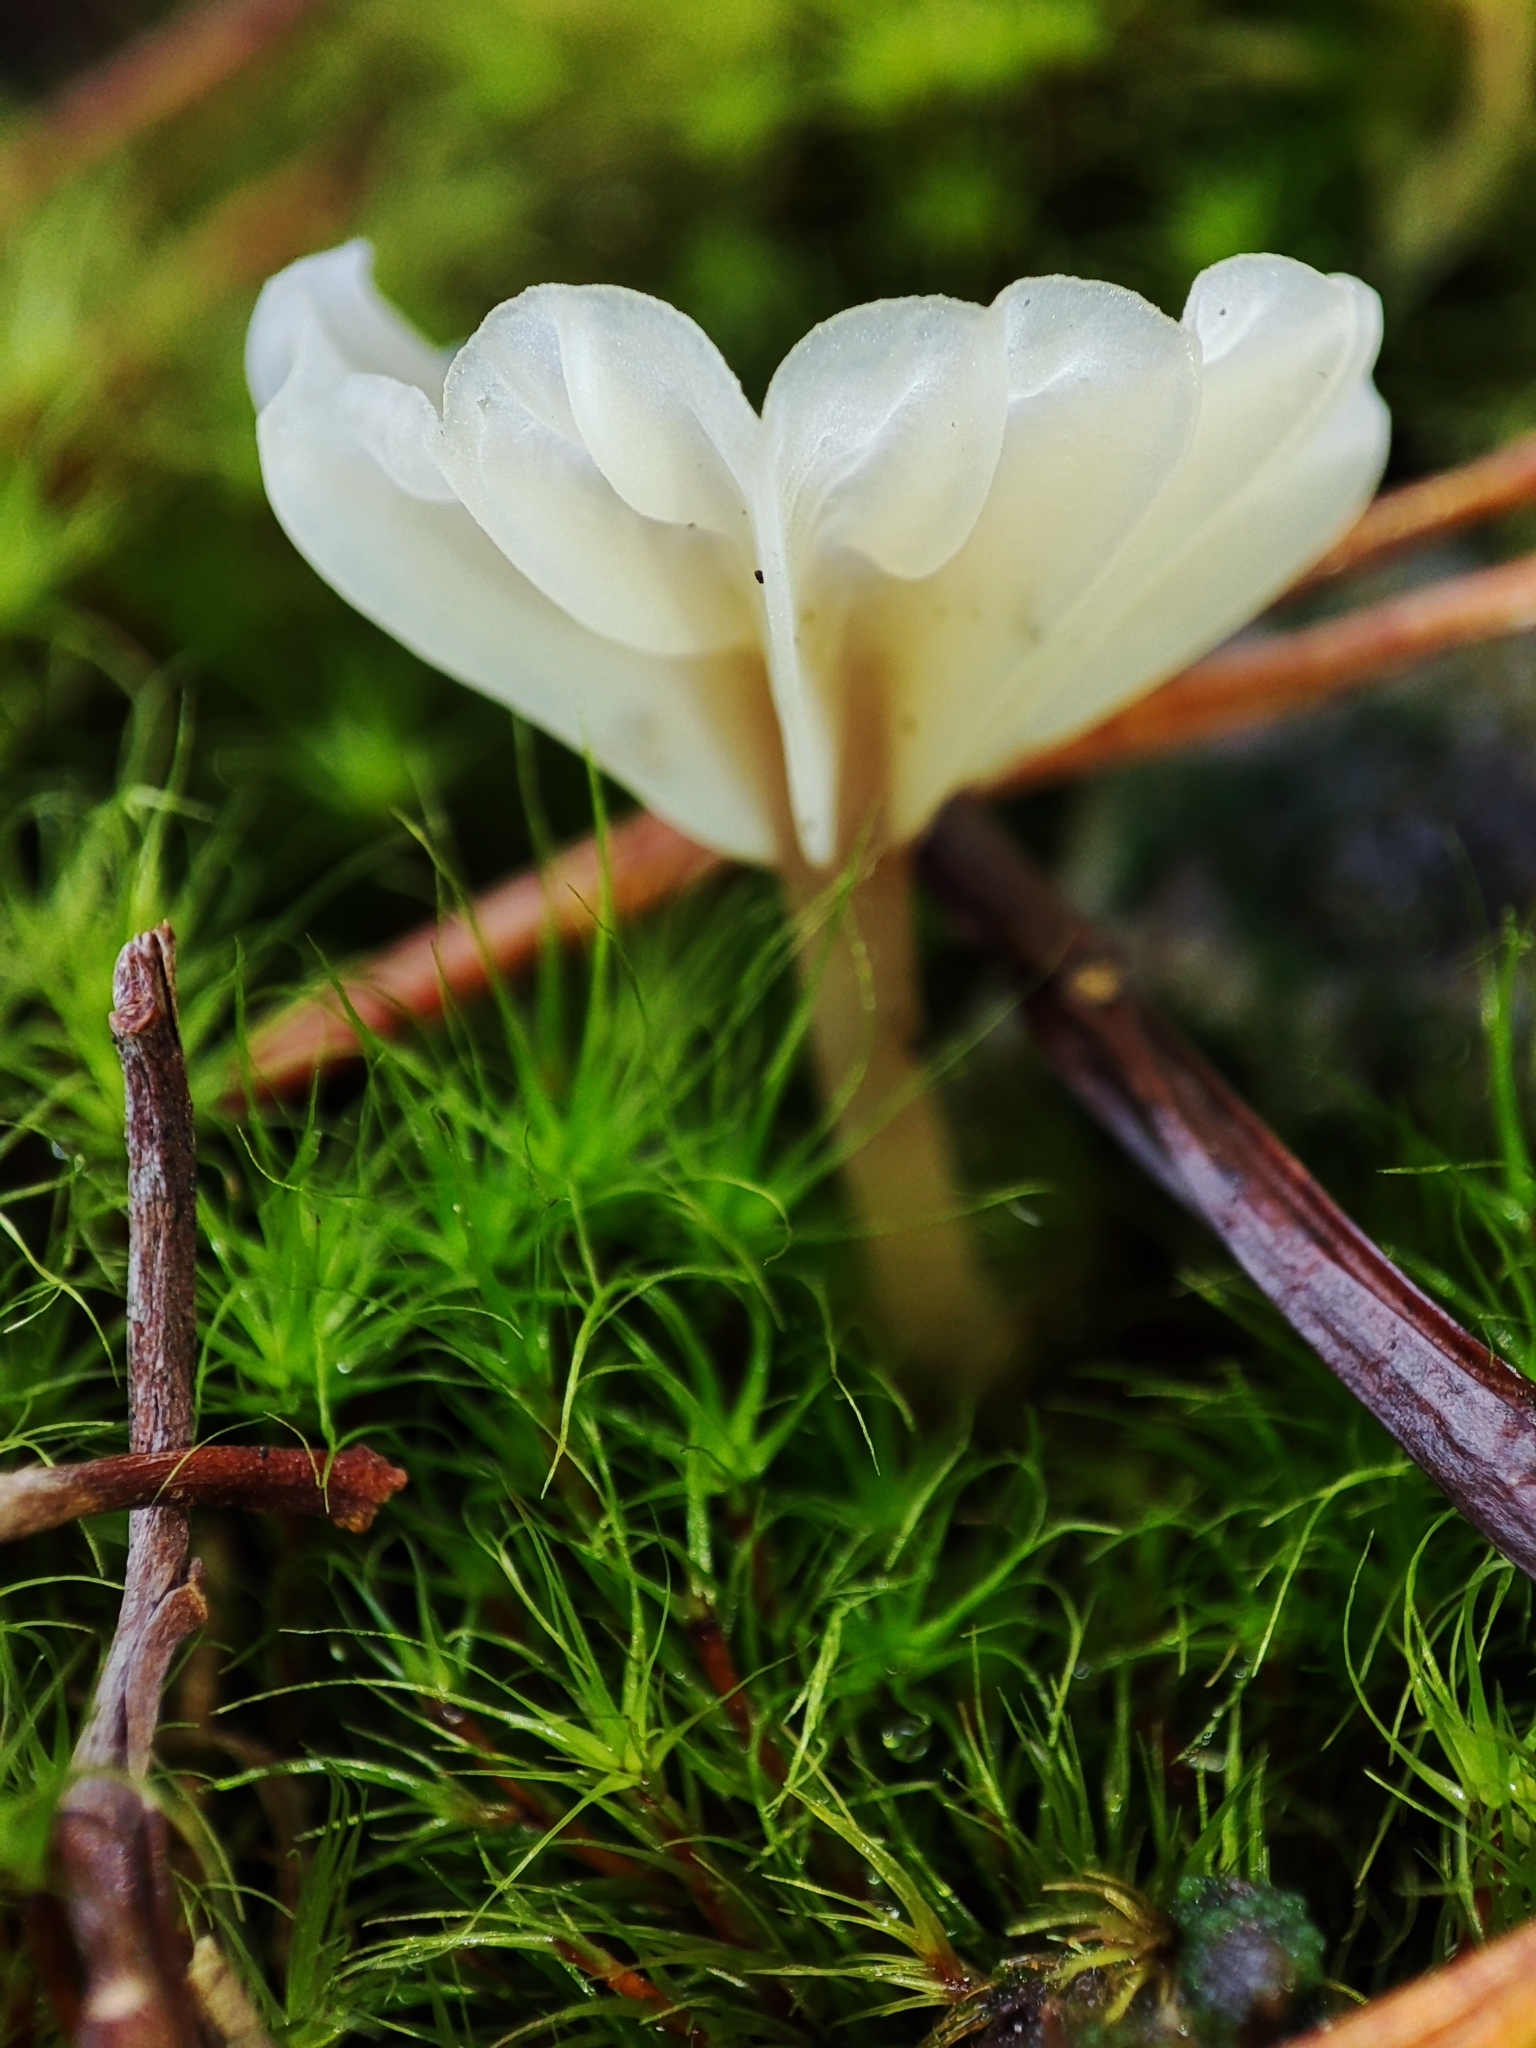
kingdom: Fungi
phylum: Basidiomycota
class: Agaricomycetes
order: Agaricales
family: Hygrophoraceae
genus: Lichenomphalia
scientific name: Lichenomphalia
